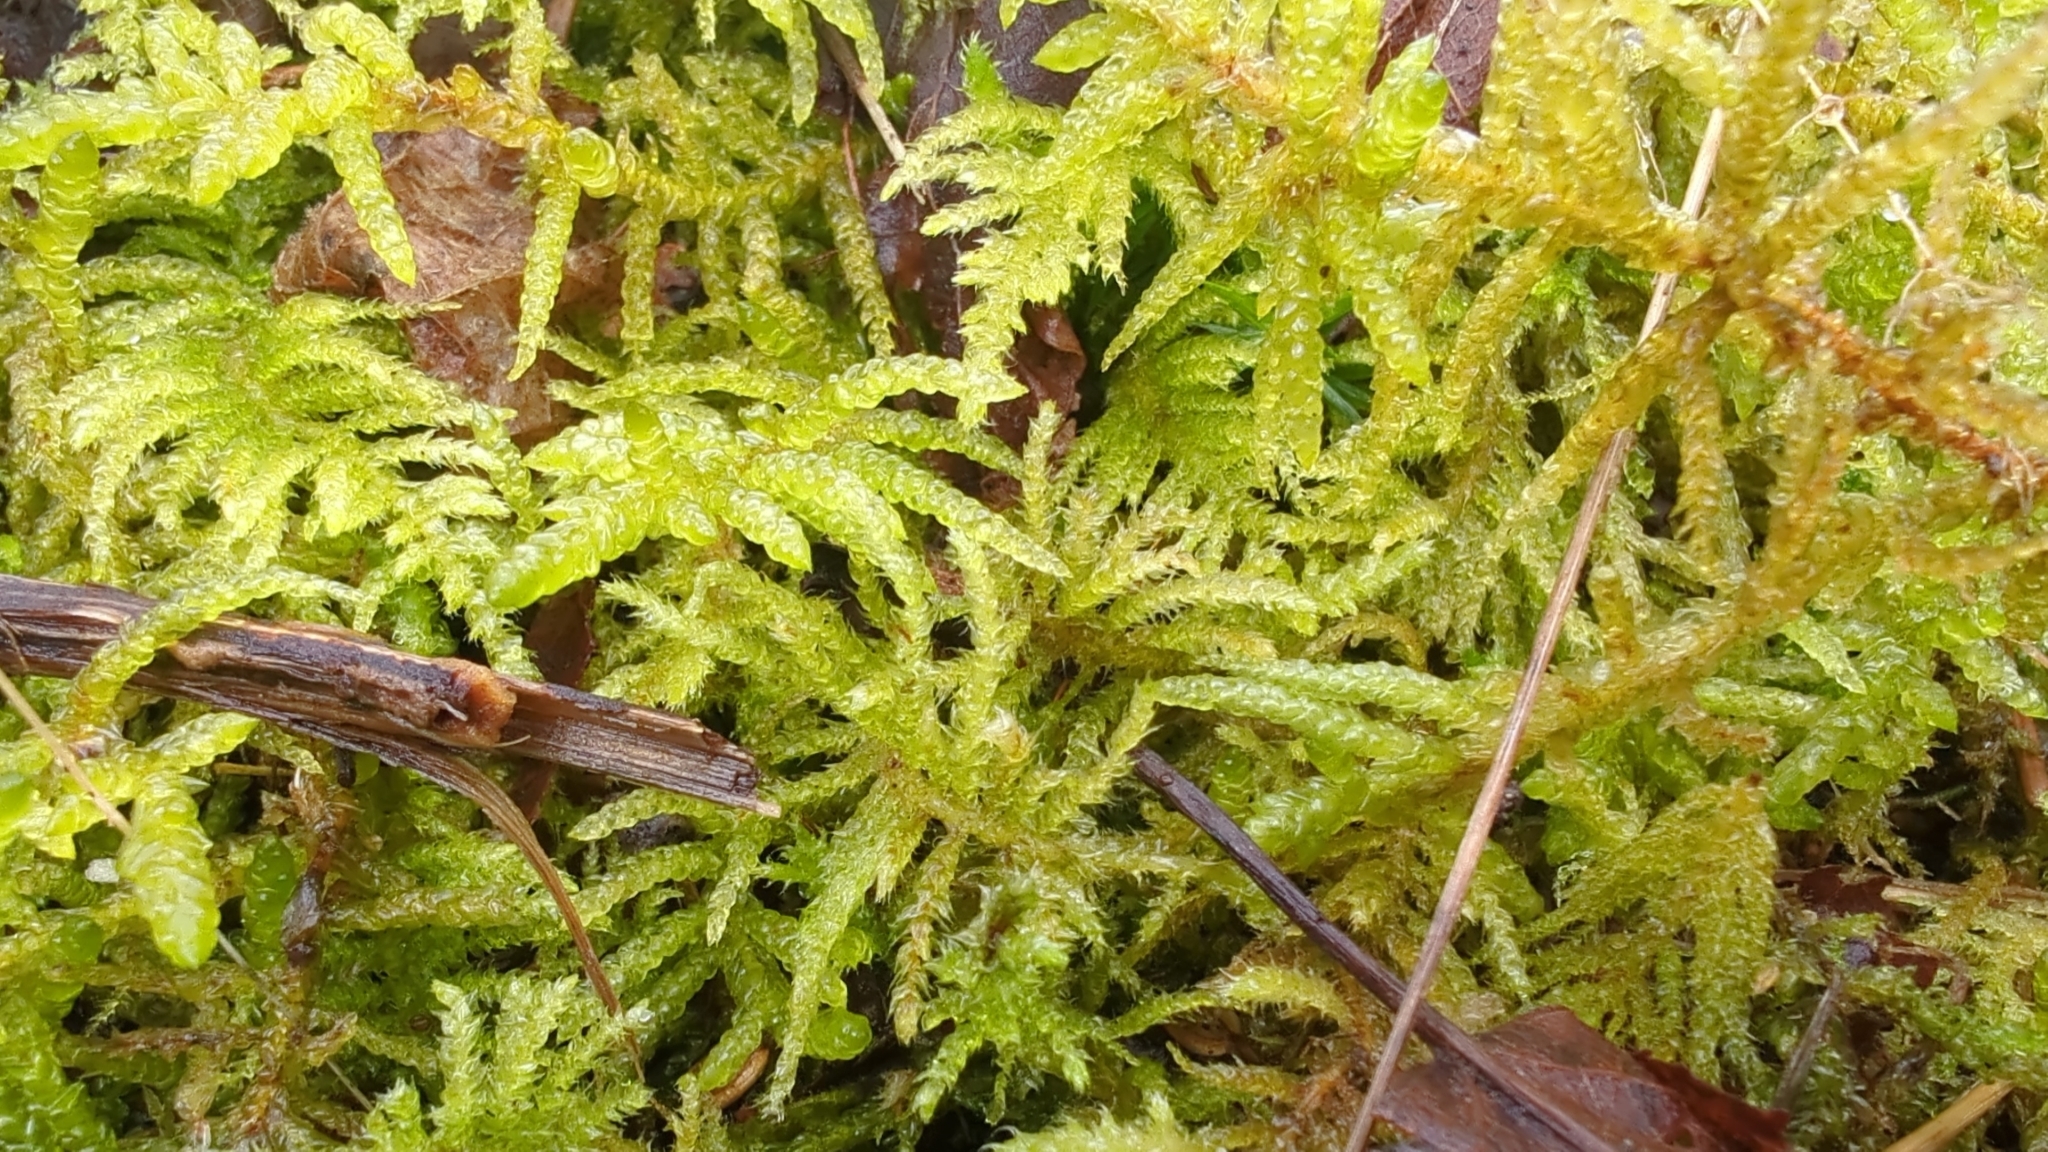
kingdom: Plantae
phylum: Bryophyta
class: Bryopsida
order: Hypnales
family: Brachytheciaceae
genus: Pseudoscleropodium
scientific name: Pseudoscleropodium purum
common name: Neat feather-moss
